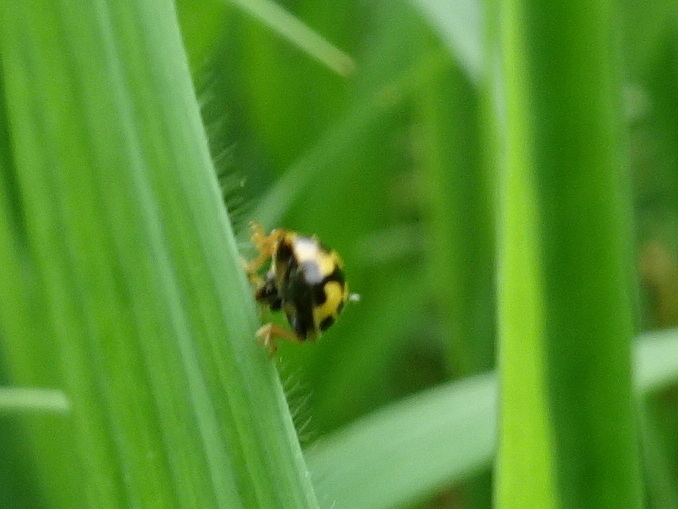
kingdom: Animalia
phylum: Arthropoda
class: Insecta
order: Coleoptera
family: Coccinellidae
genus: Propylaea
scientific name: Propylaea quatuordecimpunctata
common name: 14-spotted ladybird beetle
